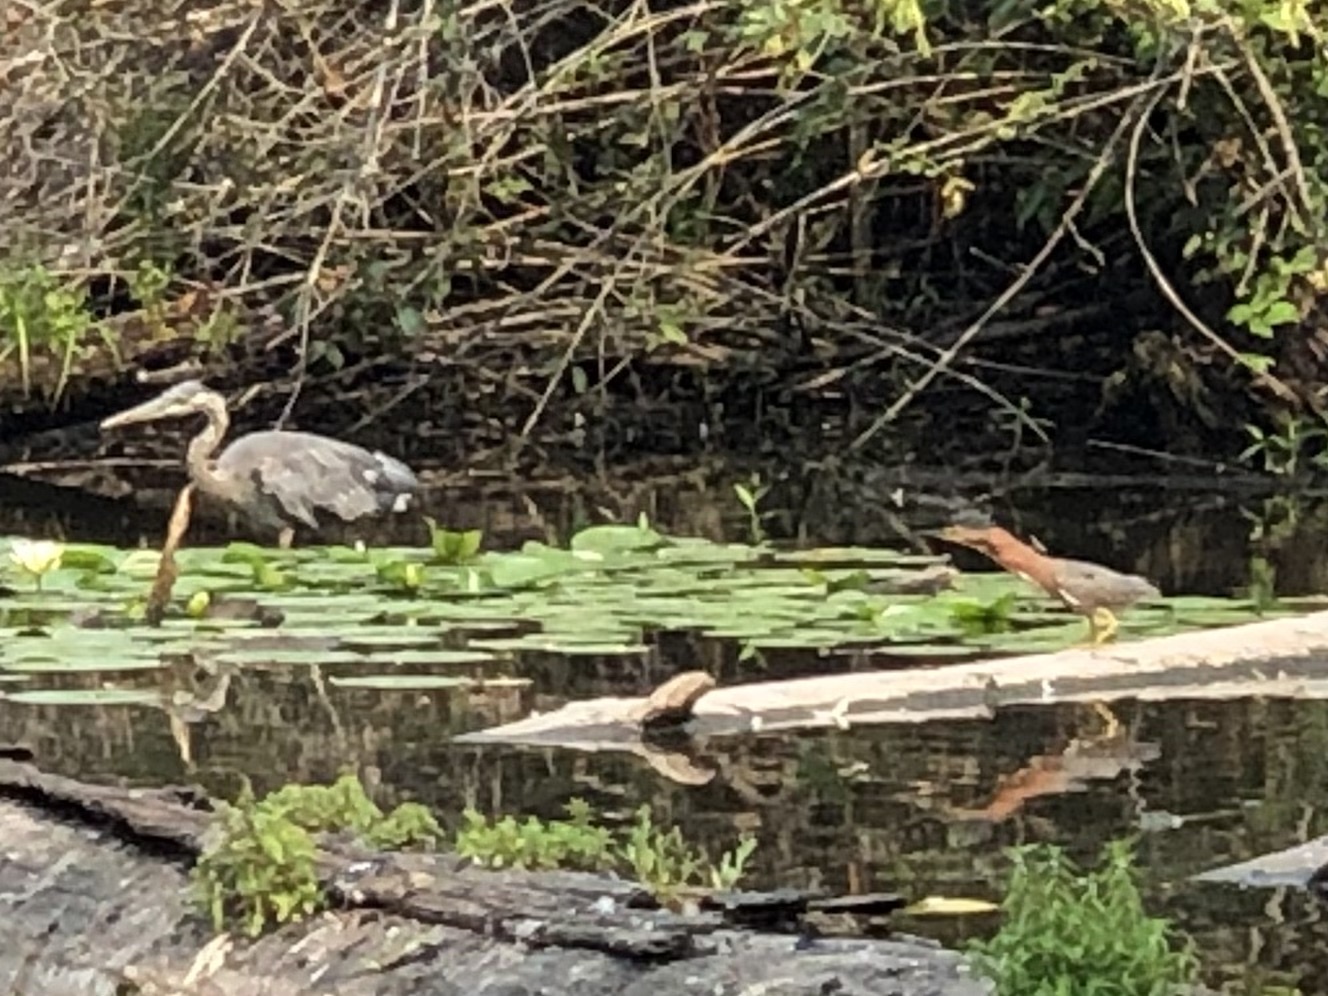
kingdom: Animalia
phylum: Chordata
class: Aves
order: Pelecaniformes
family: Ardeidae
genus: Ardea
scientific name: Ardea herodias
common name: Great blue heron
